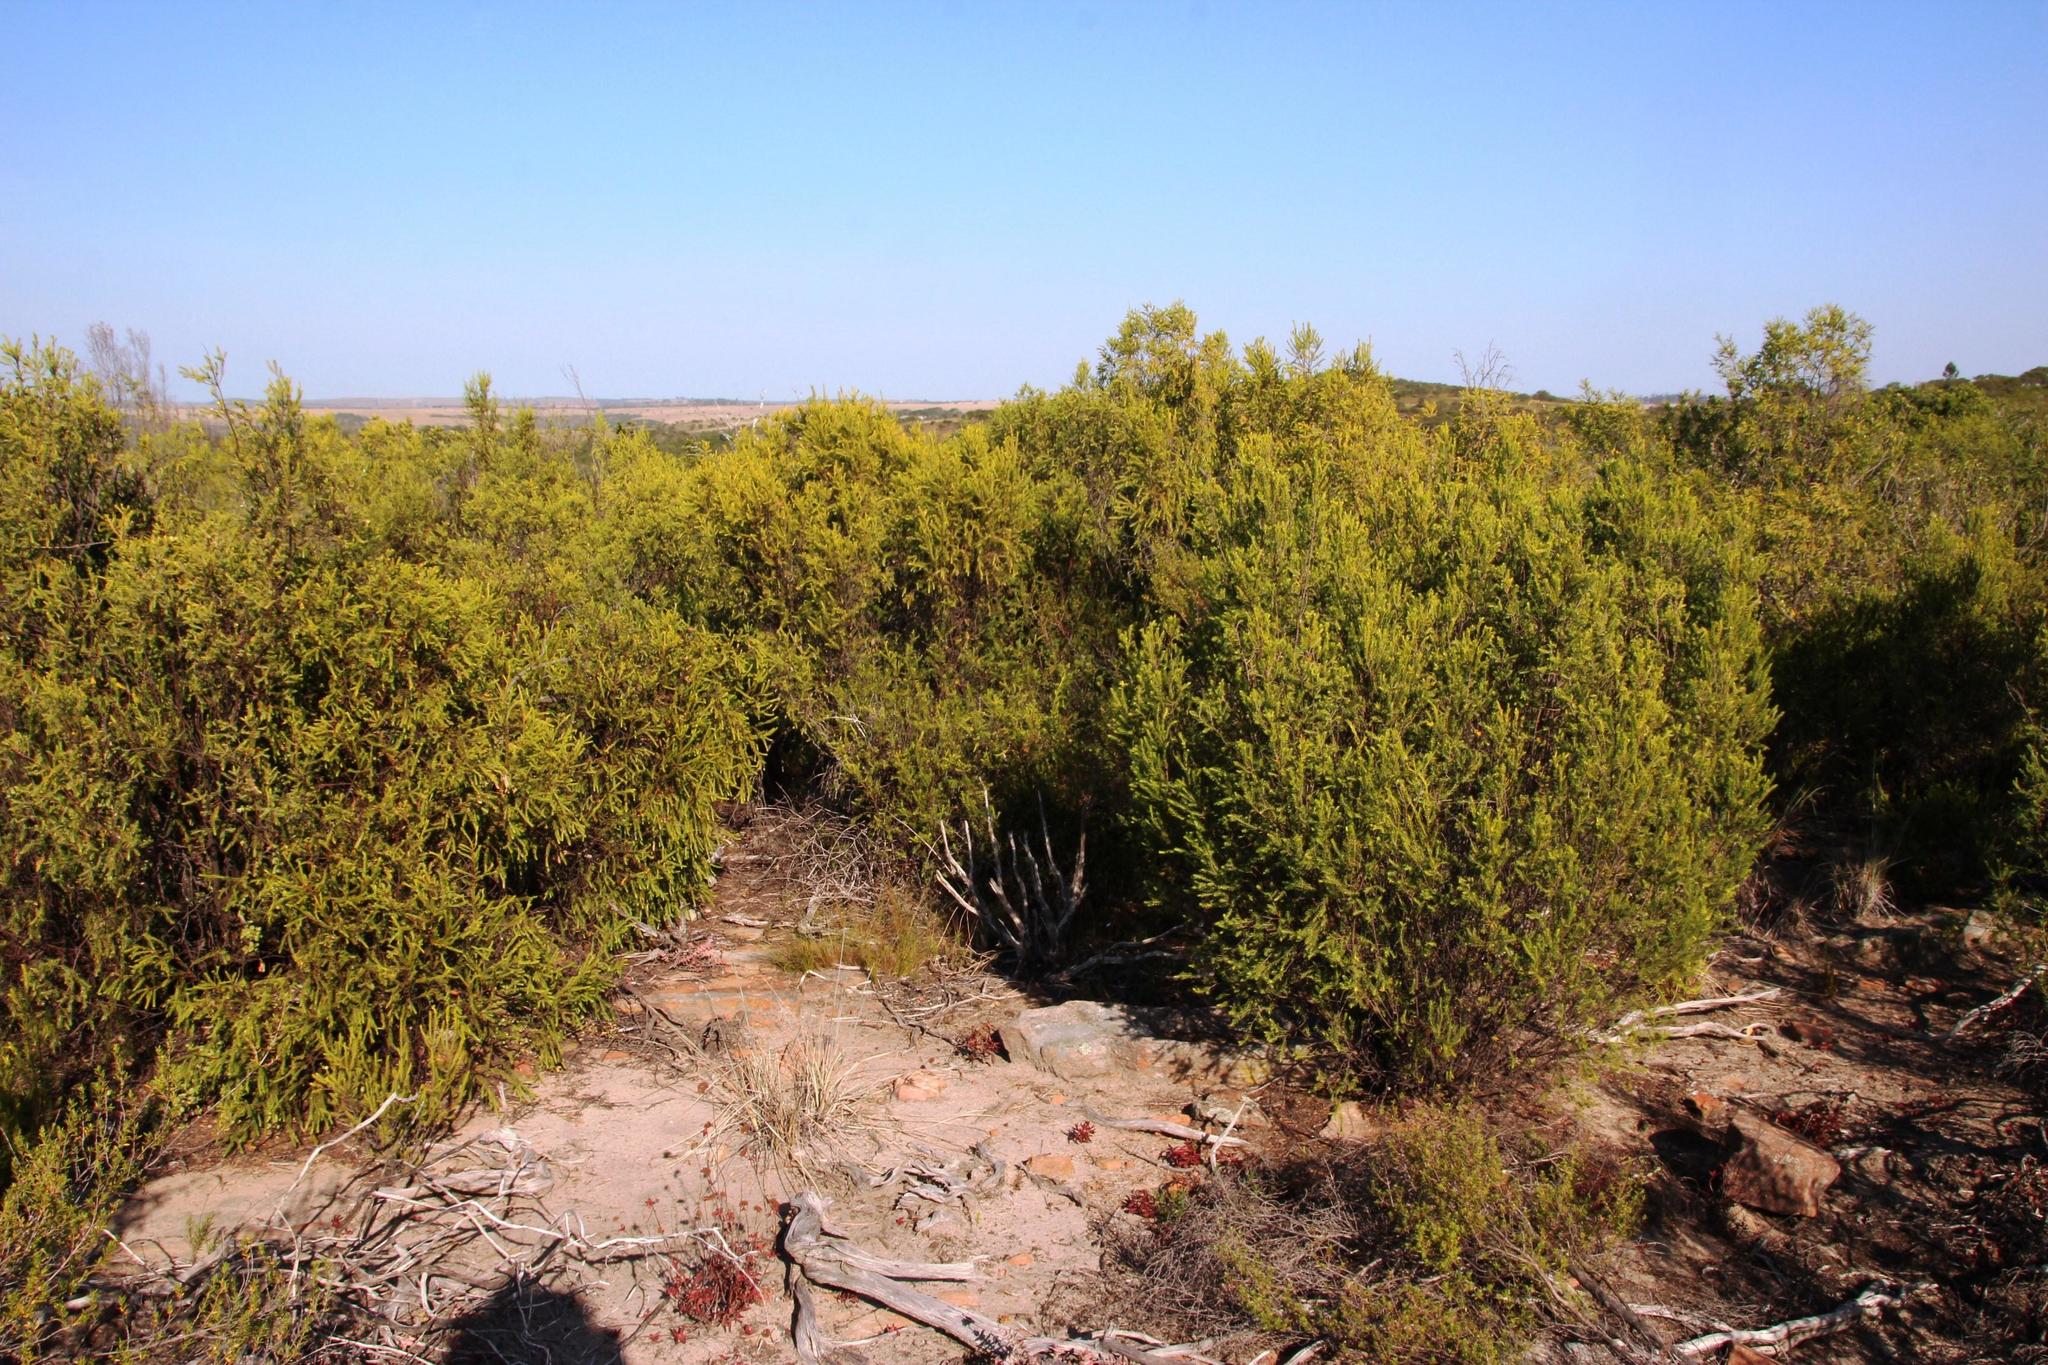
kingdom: Plantae
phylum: Tracheophyta
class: Magnoliopsida
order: Malvales
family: Thymelaeaceae
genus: Passerina
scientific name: Passerina obtusifolia
